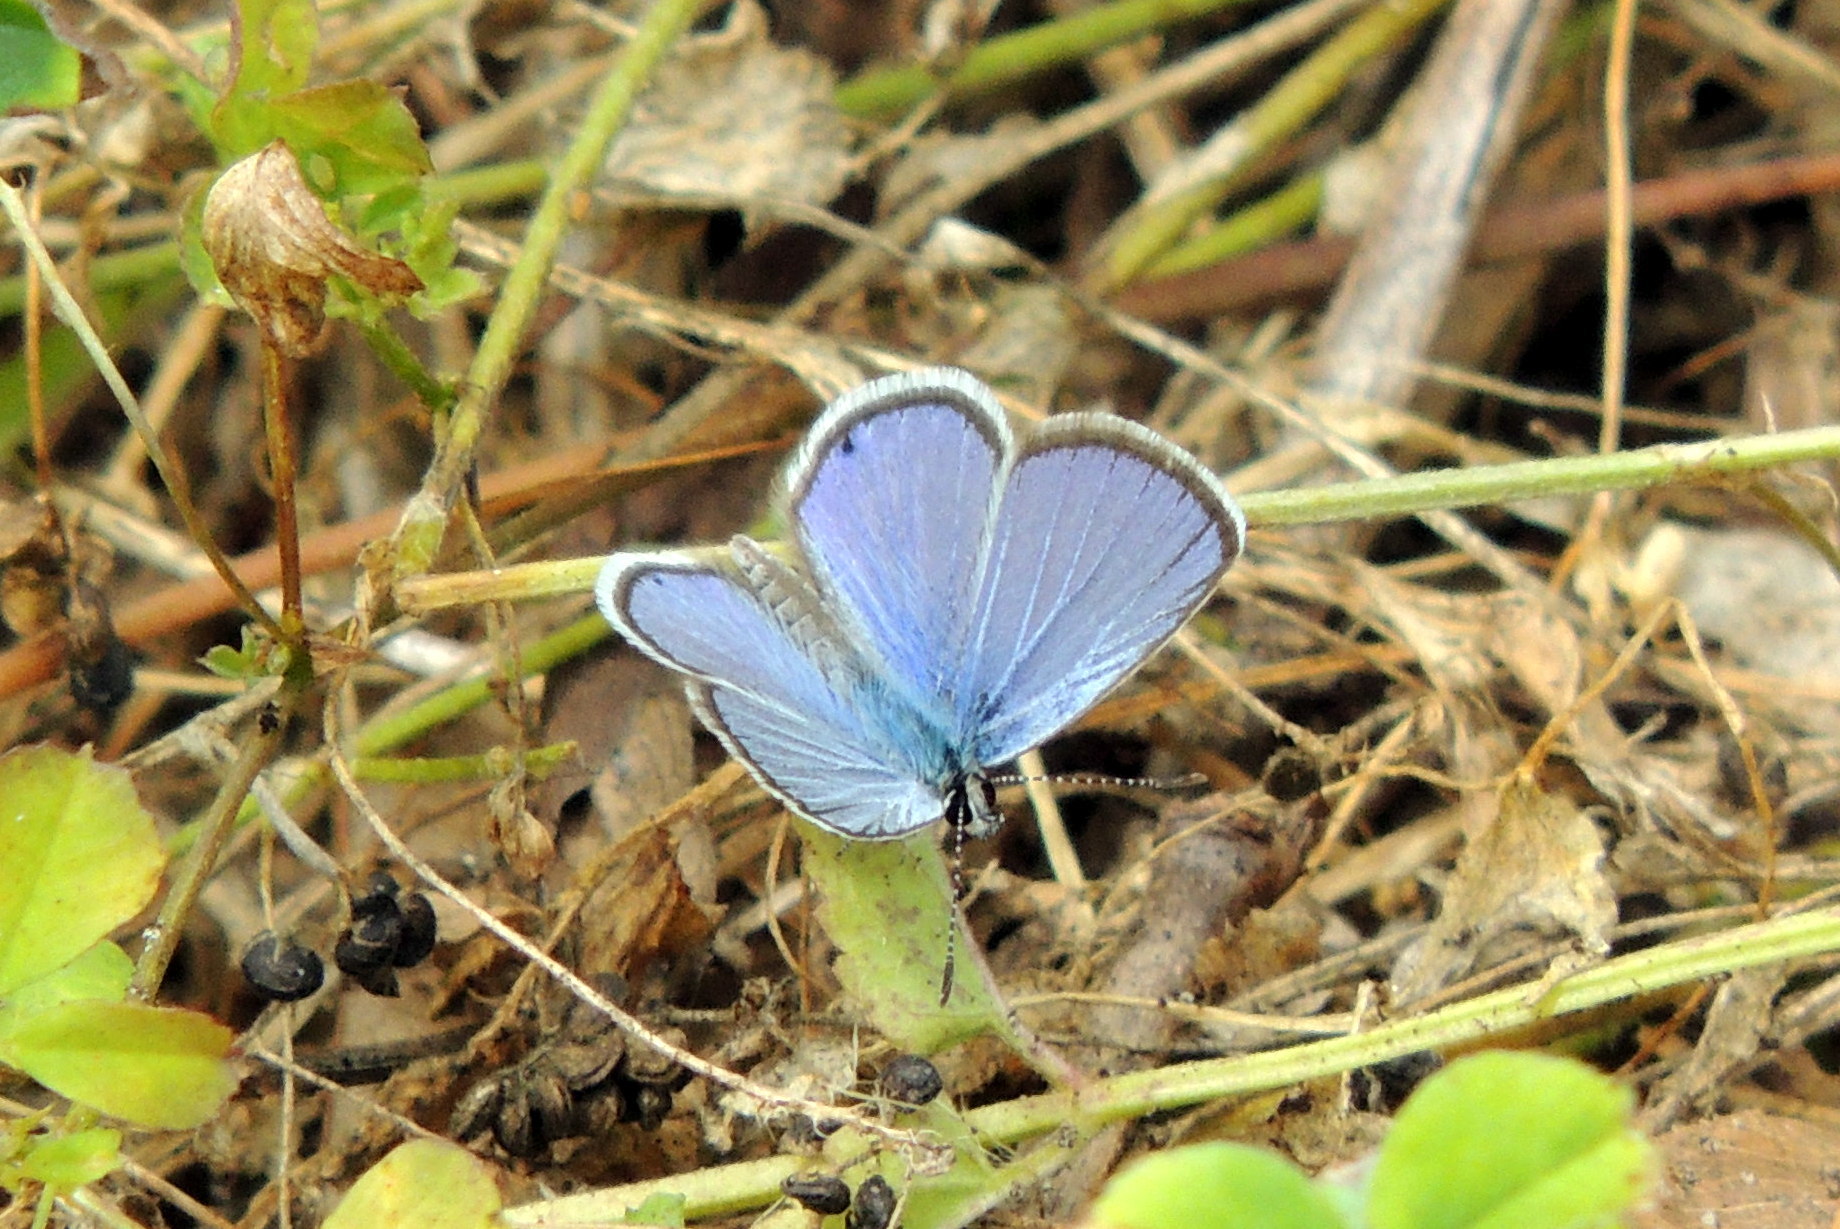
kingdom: Animalia
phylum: Arthropoda
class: Insecta
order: Lepidoptera
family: Lycaenidae
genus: Hemiargus
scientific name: Hemiargus ceraunus
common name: Ceraunus blue
